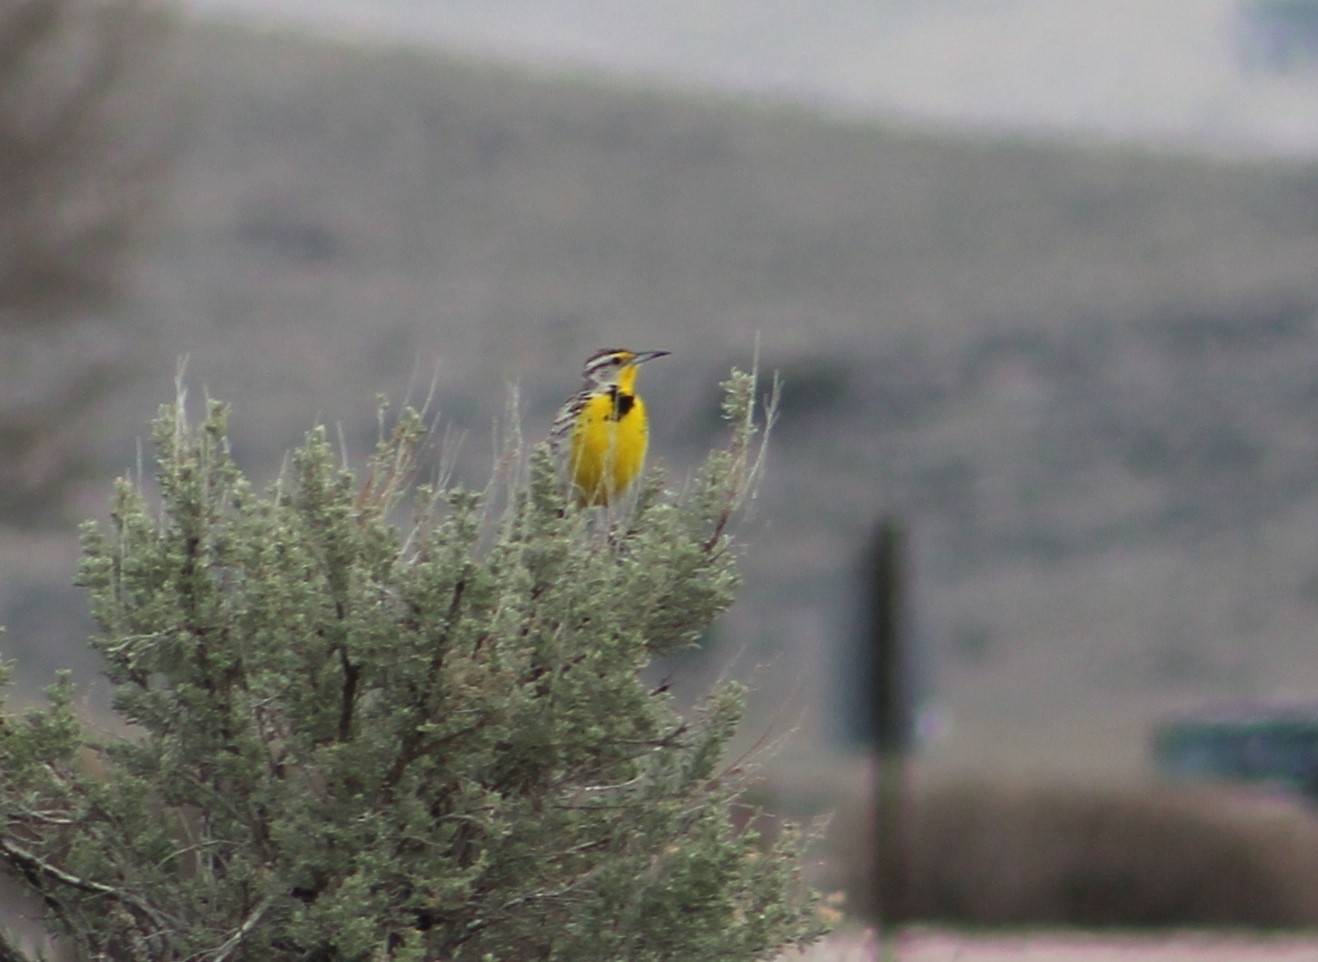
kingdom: Animalia
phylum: Chordata
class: Aves
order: Passeriformes
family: Icteridae
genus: Sturnella
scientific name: Sturnella neglecta
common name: Western meadowlark
